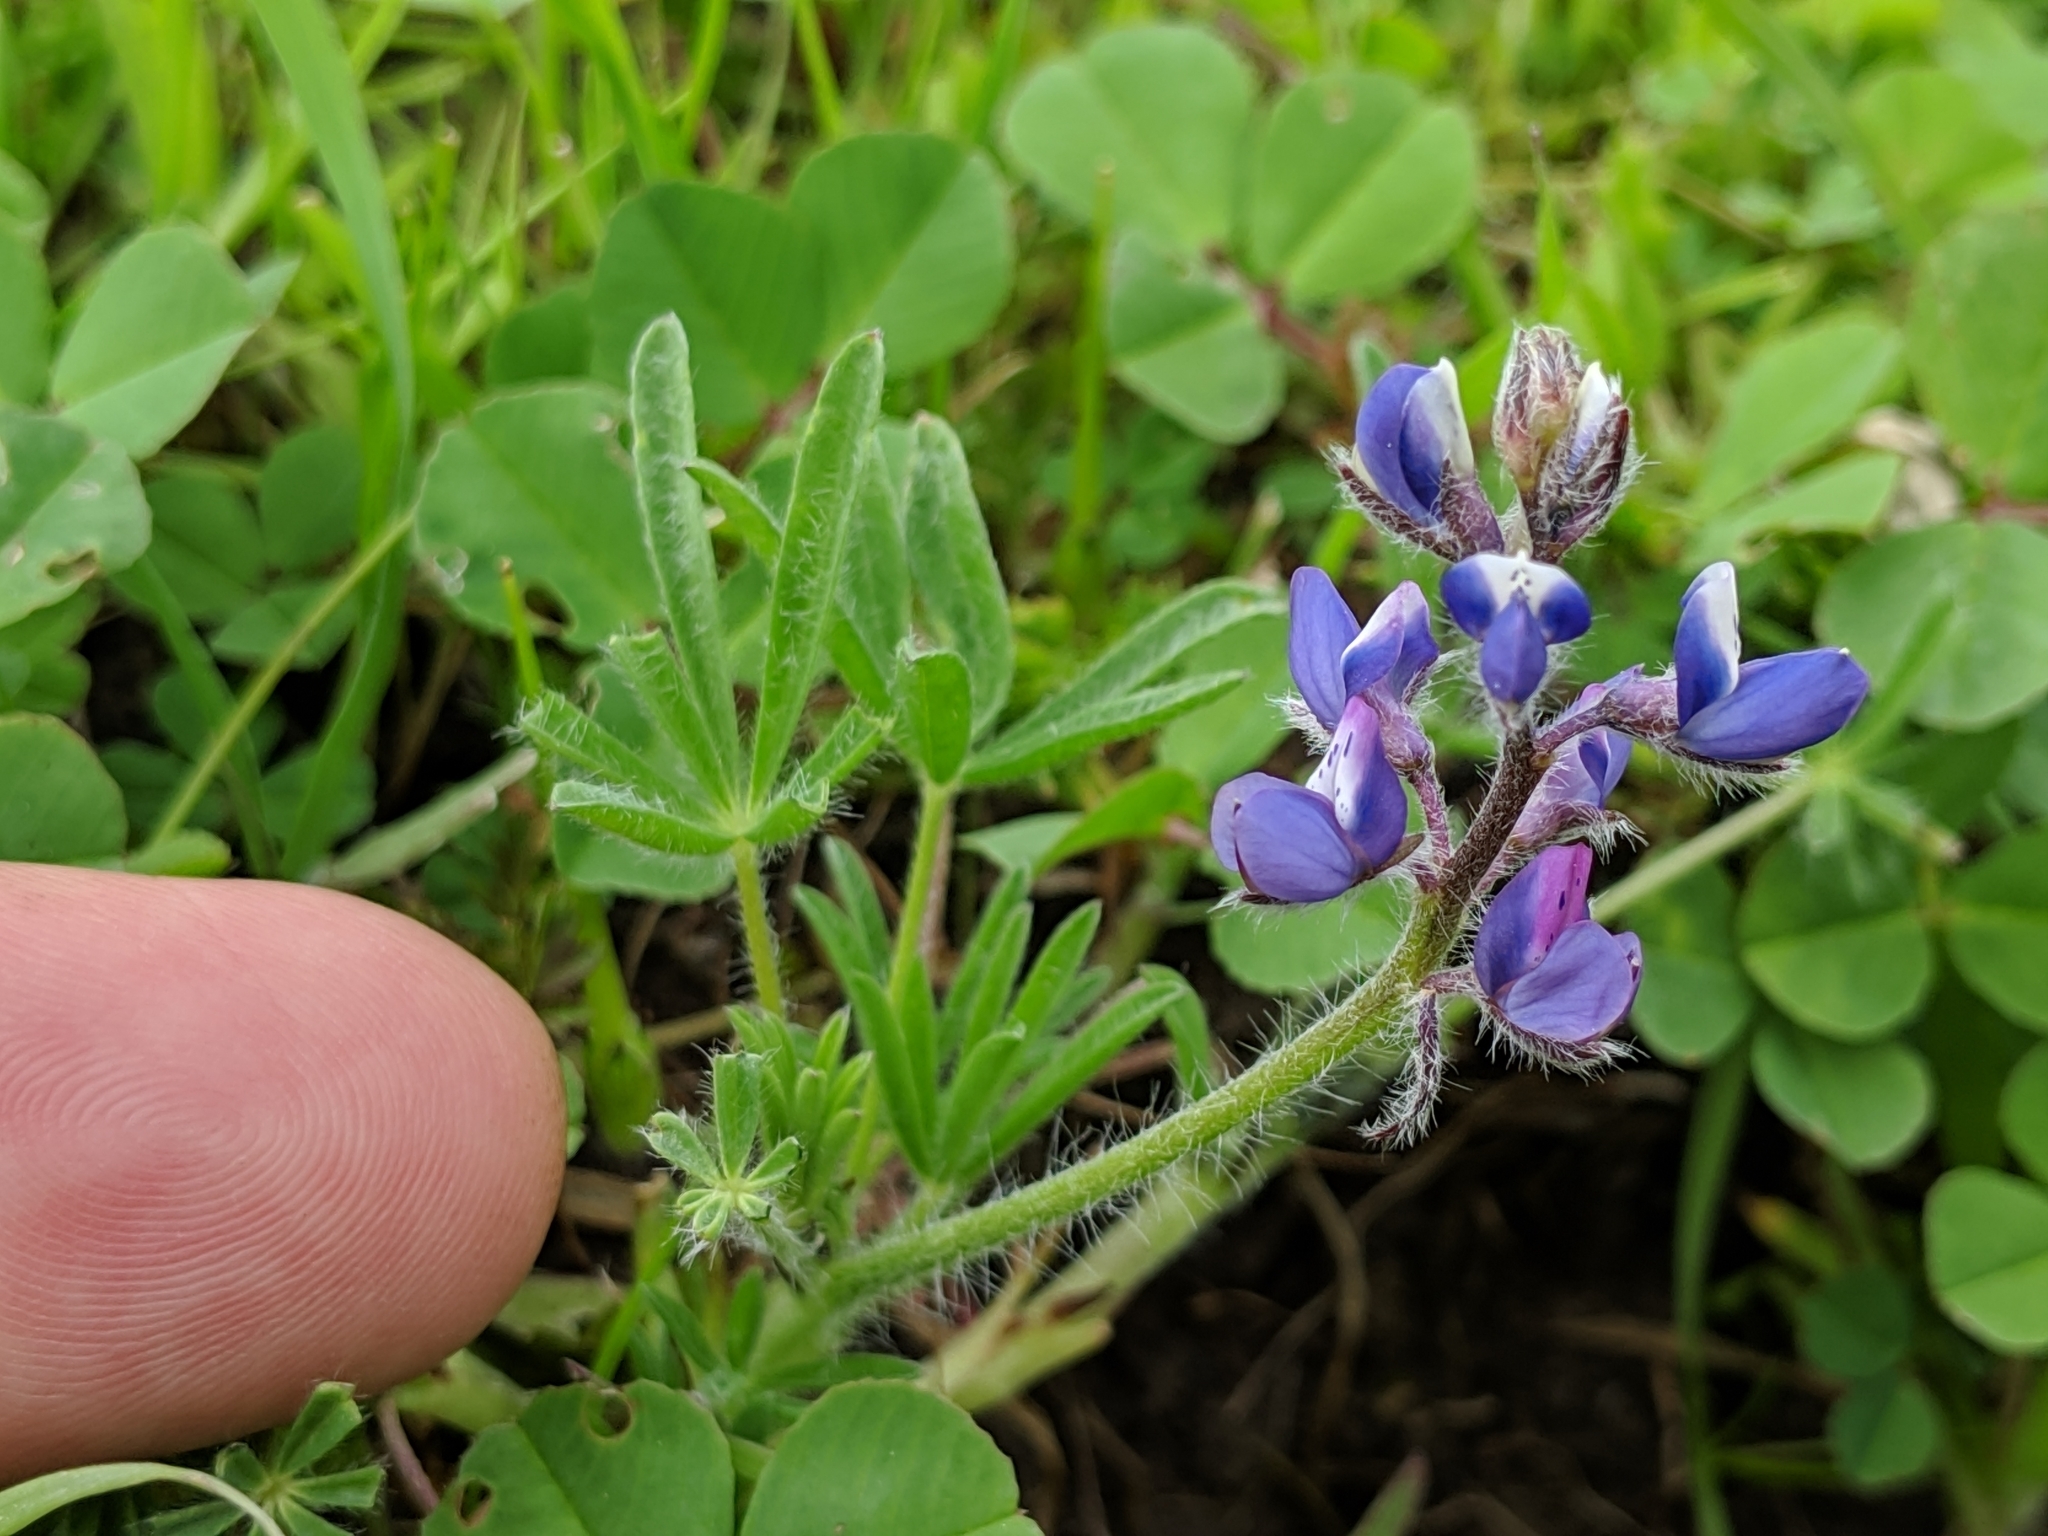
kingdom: Plantae
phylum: Tracheophyta
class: Magnoliopsida
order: Fabales
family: Fabaceae
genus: Lupinus
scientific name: Lupinus bicolor
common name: Miniature lupine
